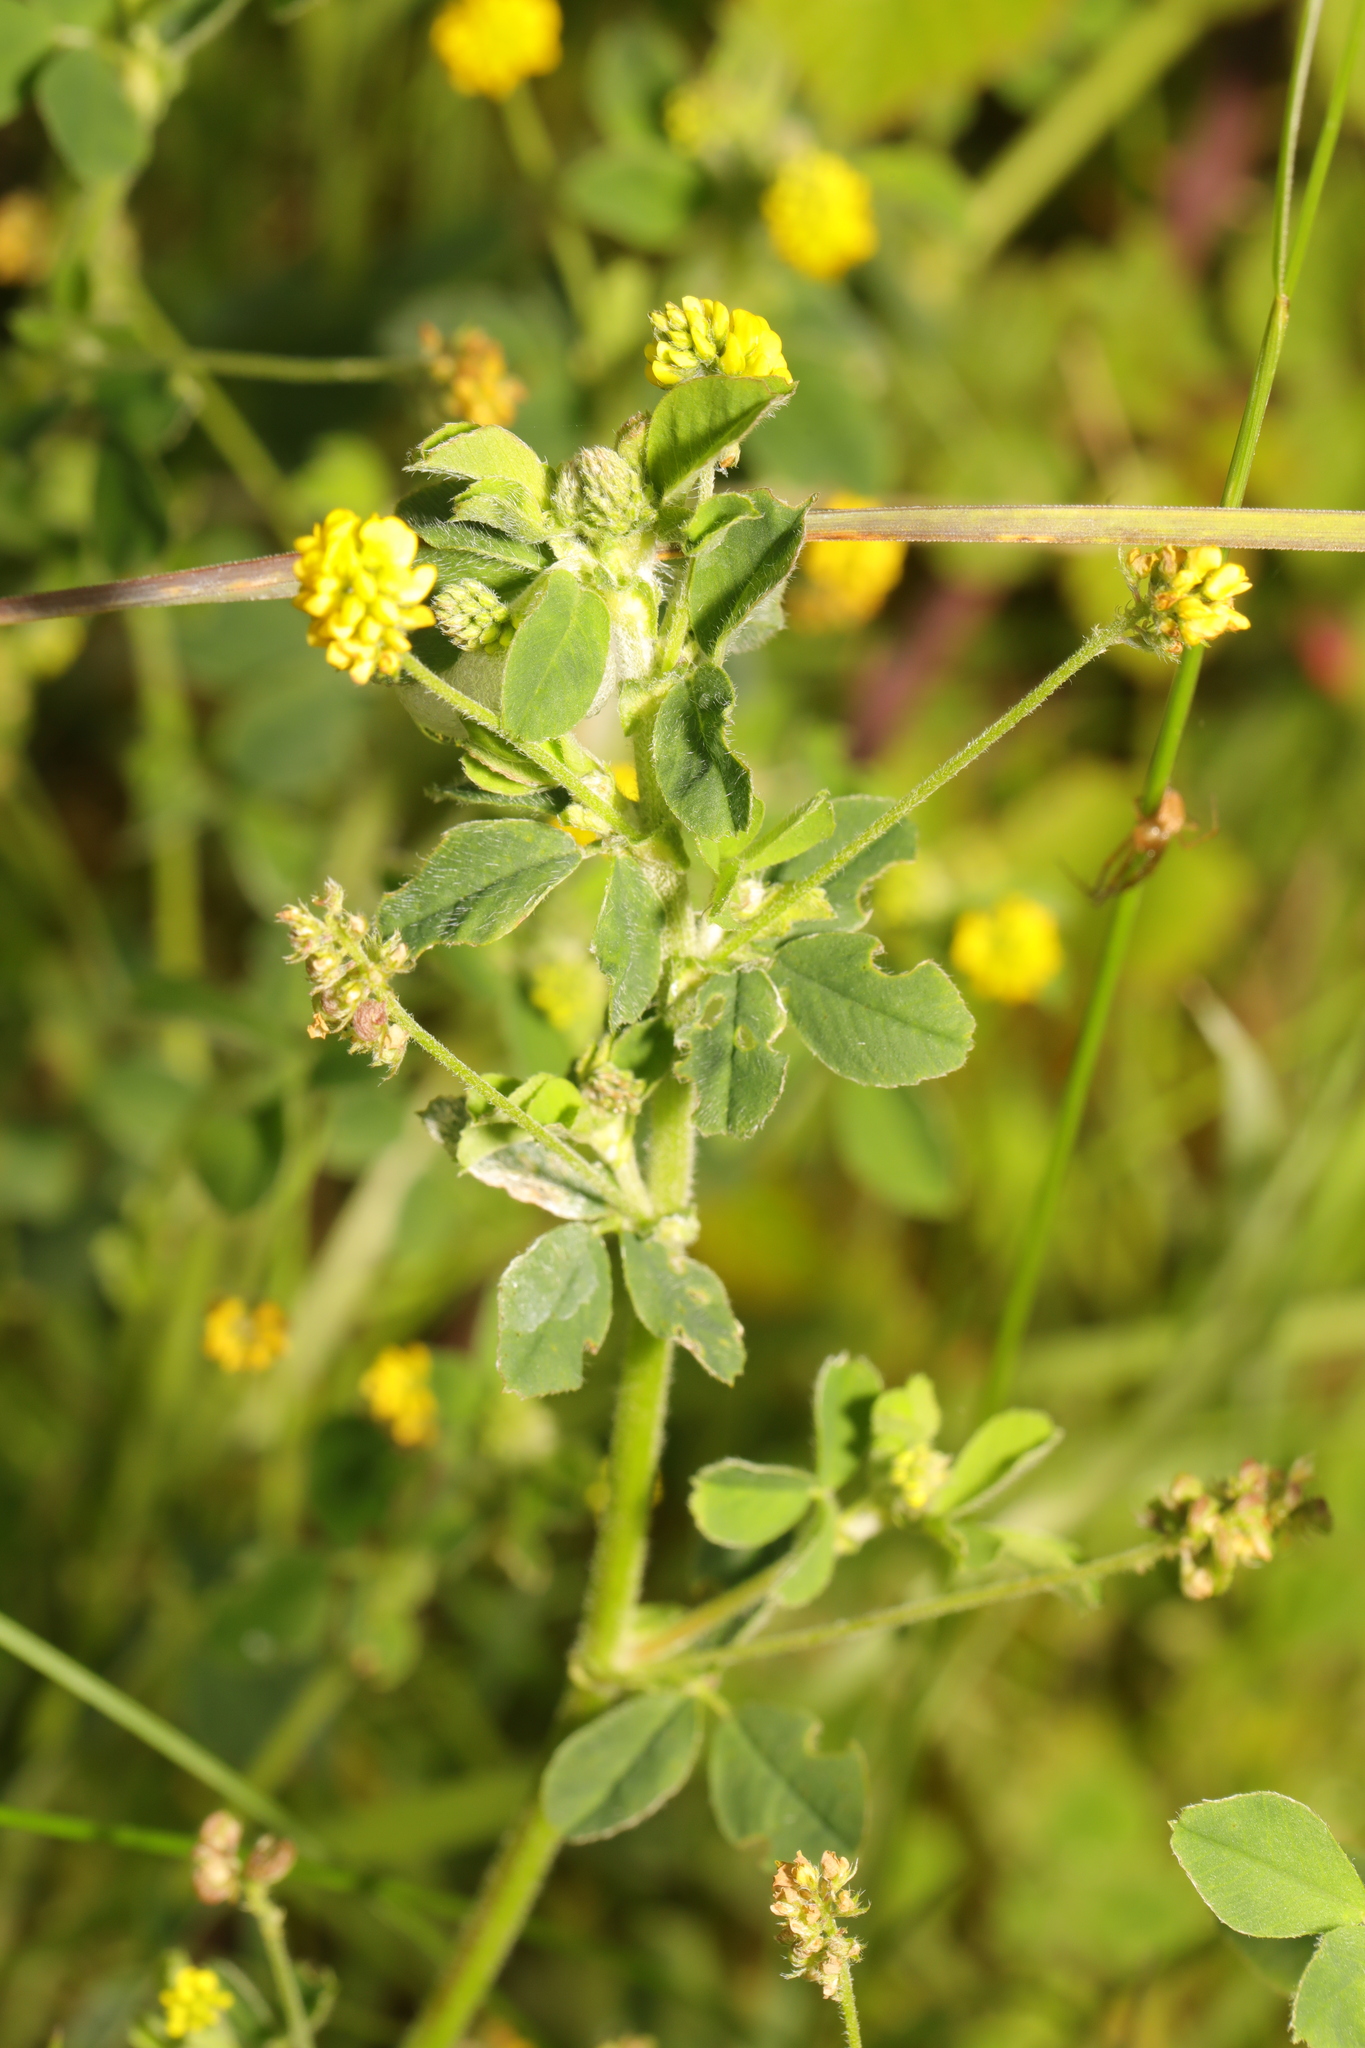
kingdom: Plantae
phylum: Tracheophyta
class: Magnoliopsida
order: Fabales
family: Fabaceae
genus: Medicago
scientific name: Medicago lupulina
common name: Black medick
